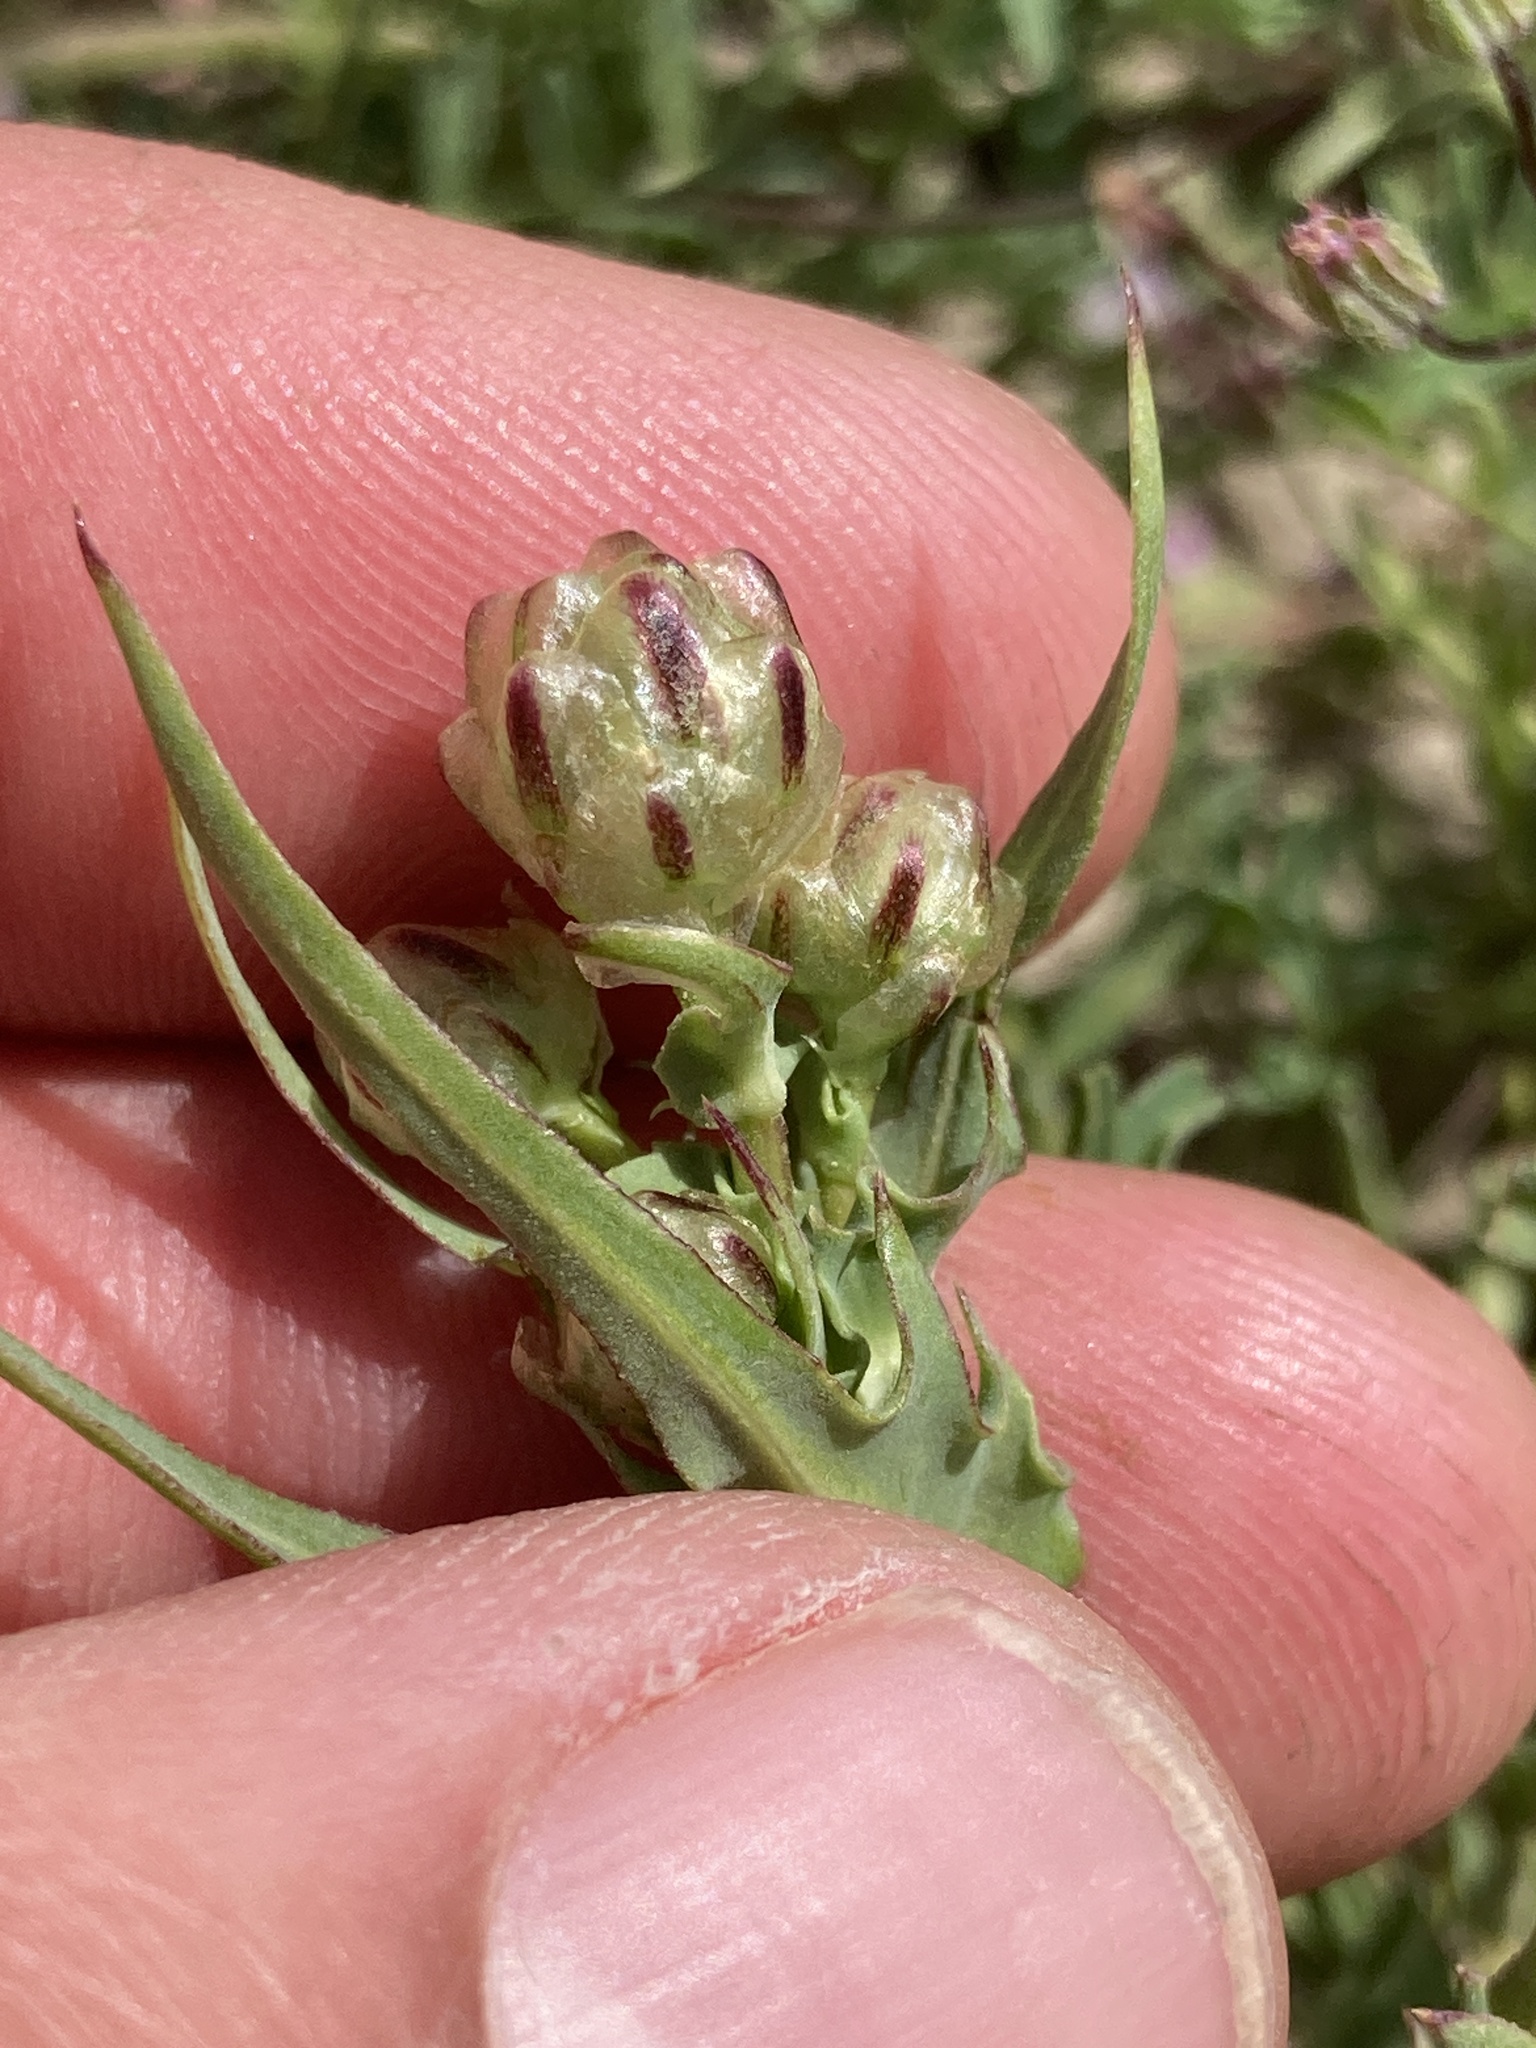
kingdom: Plantae
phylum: Tracheophyta
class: Magnoliopsida
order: Asterales
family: Asteraceae
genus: Malacothrix
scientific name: Malacothrix coulteri
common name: Snake's-head
